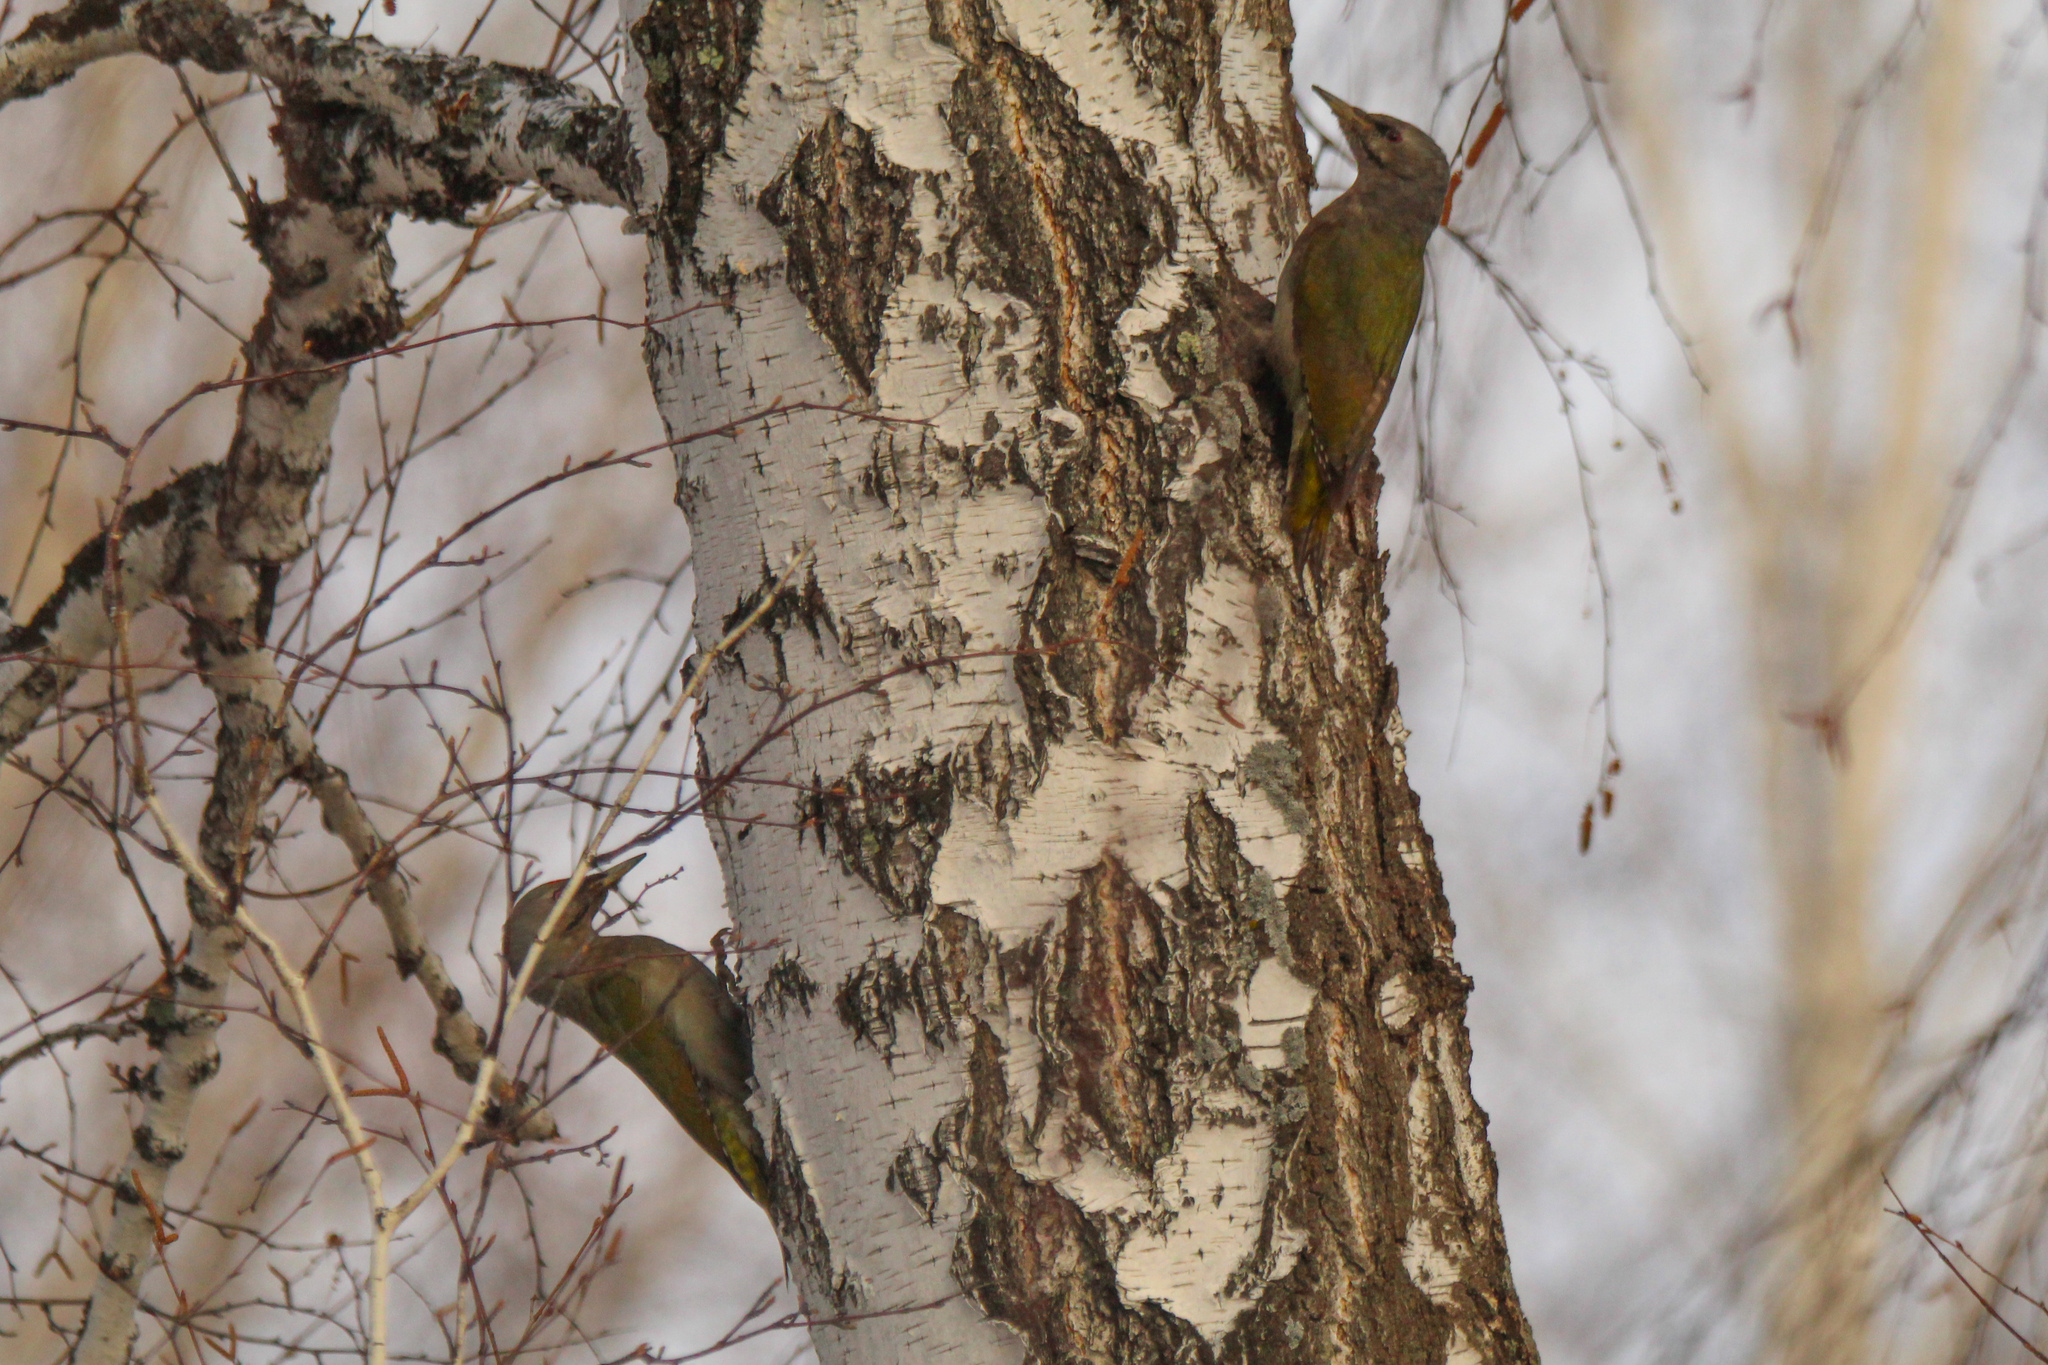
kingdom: Animalia
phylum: Chordata
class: Aves
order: Piciformes
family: Picidae
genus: Picus
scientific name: Picus canus
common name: Grey-headed woodpecker
